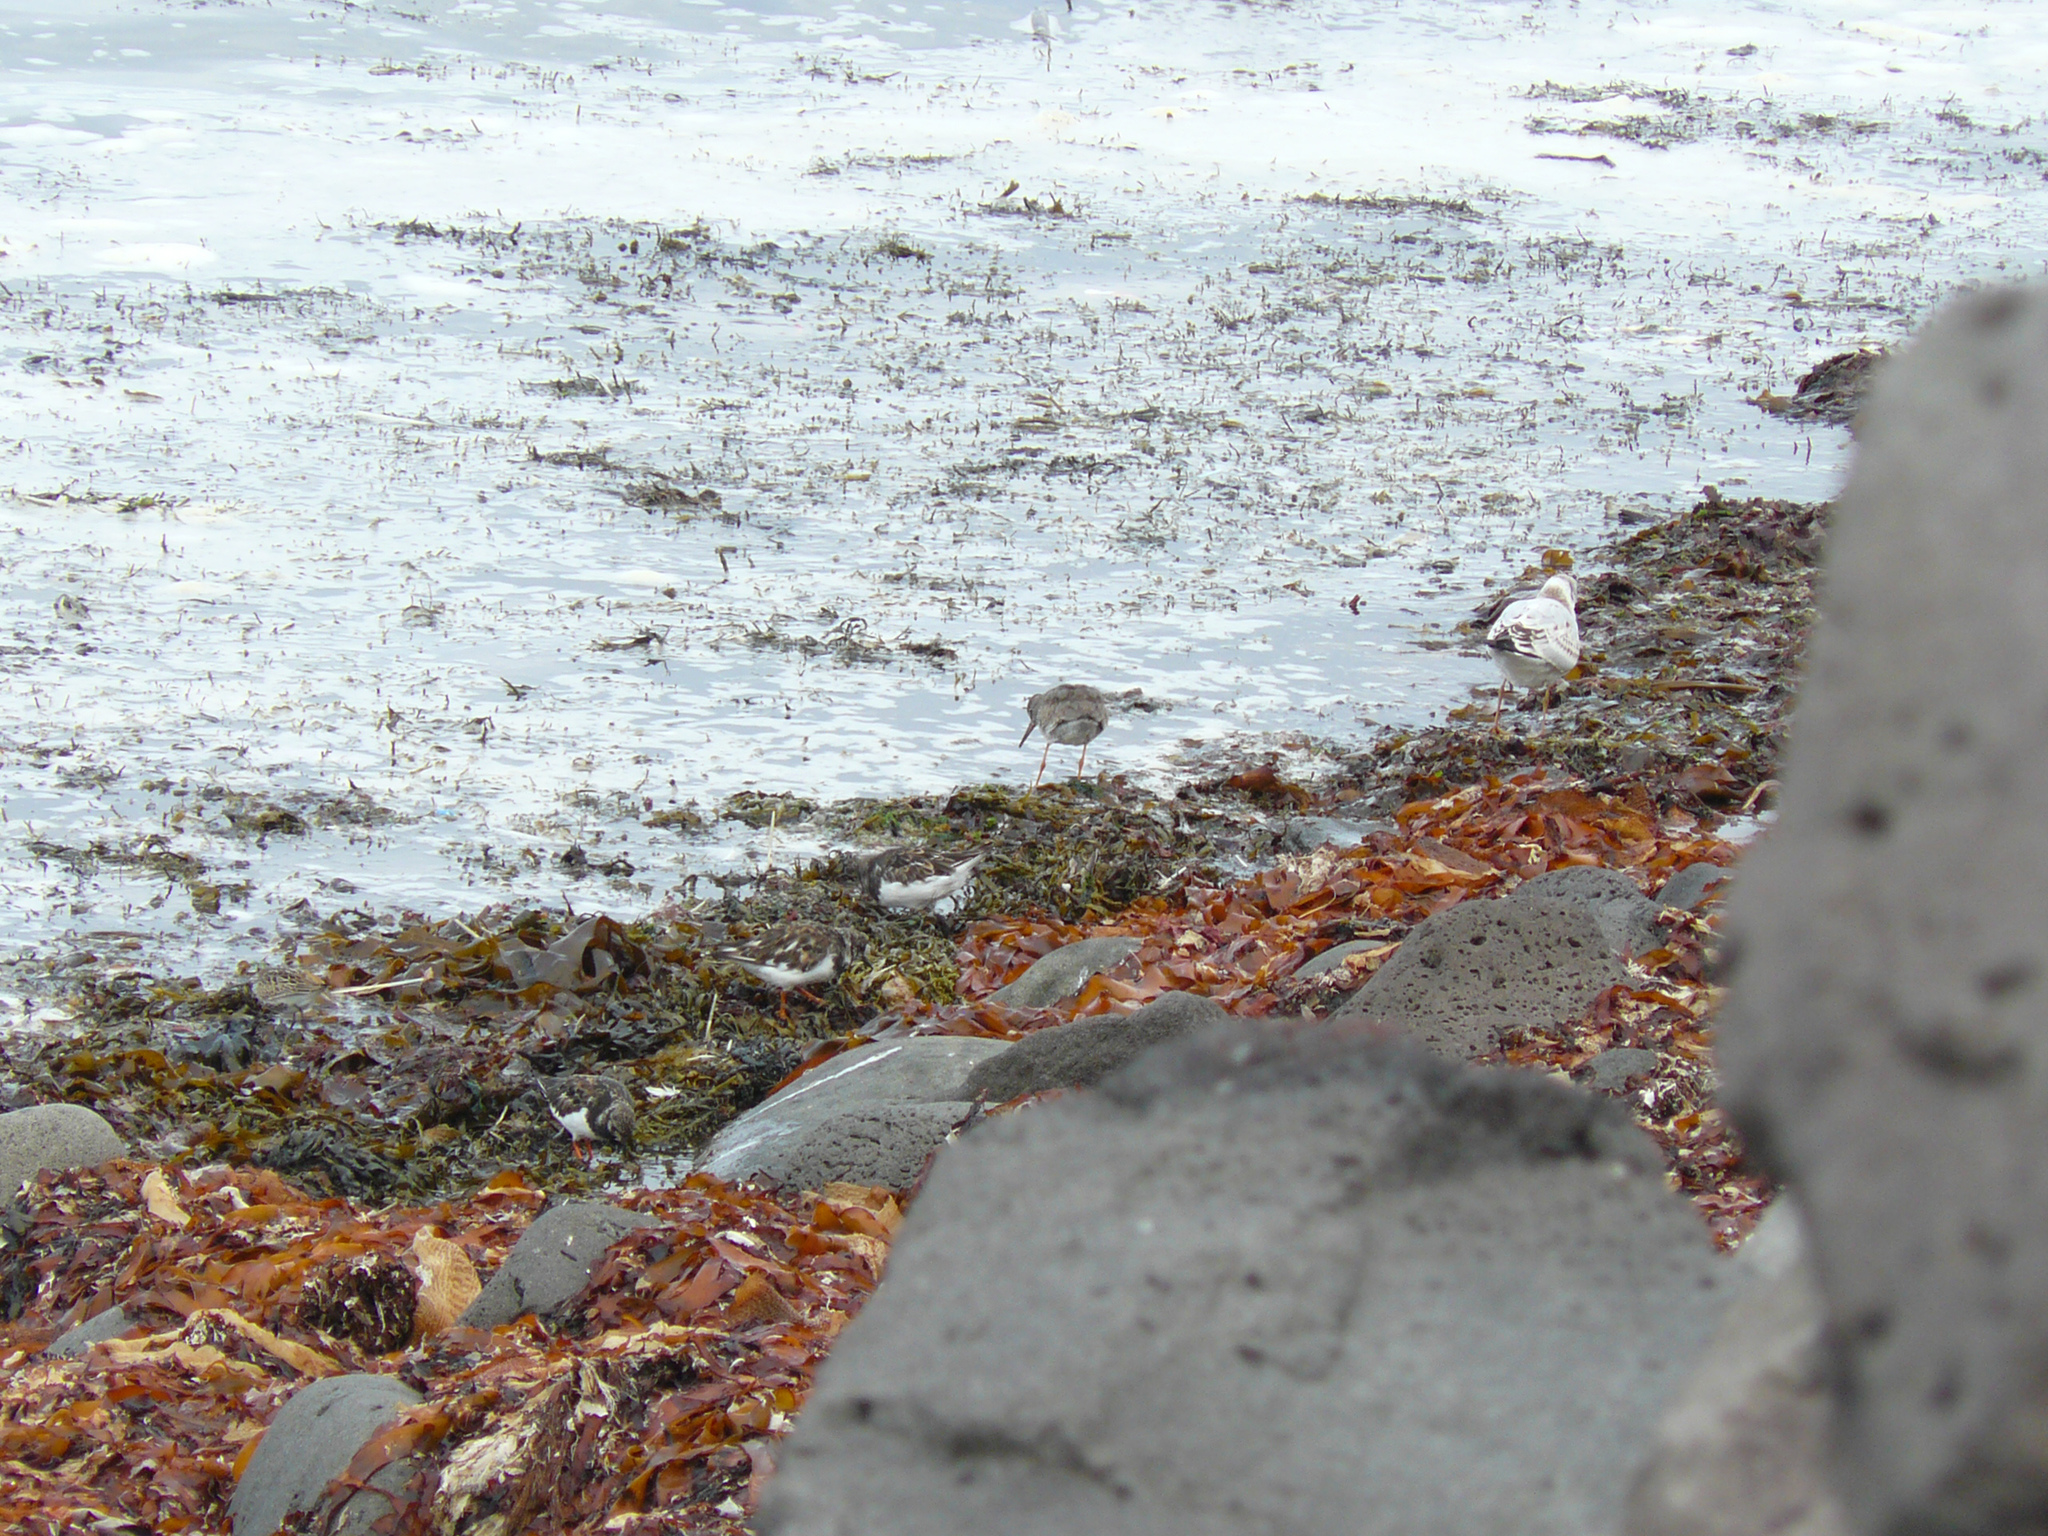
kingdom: Animalia
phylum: Chordata
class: Aves
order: Charadriiformes
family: Scolopacidae
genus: Arenaria
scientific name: Arenaria interpres
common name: Ruddy turnstone
